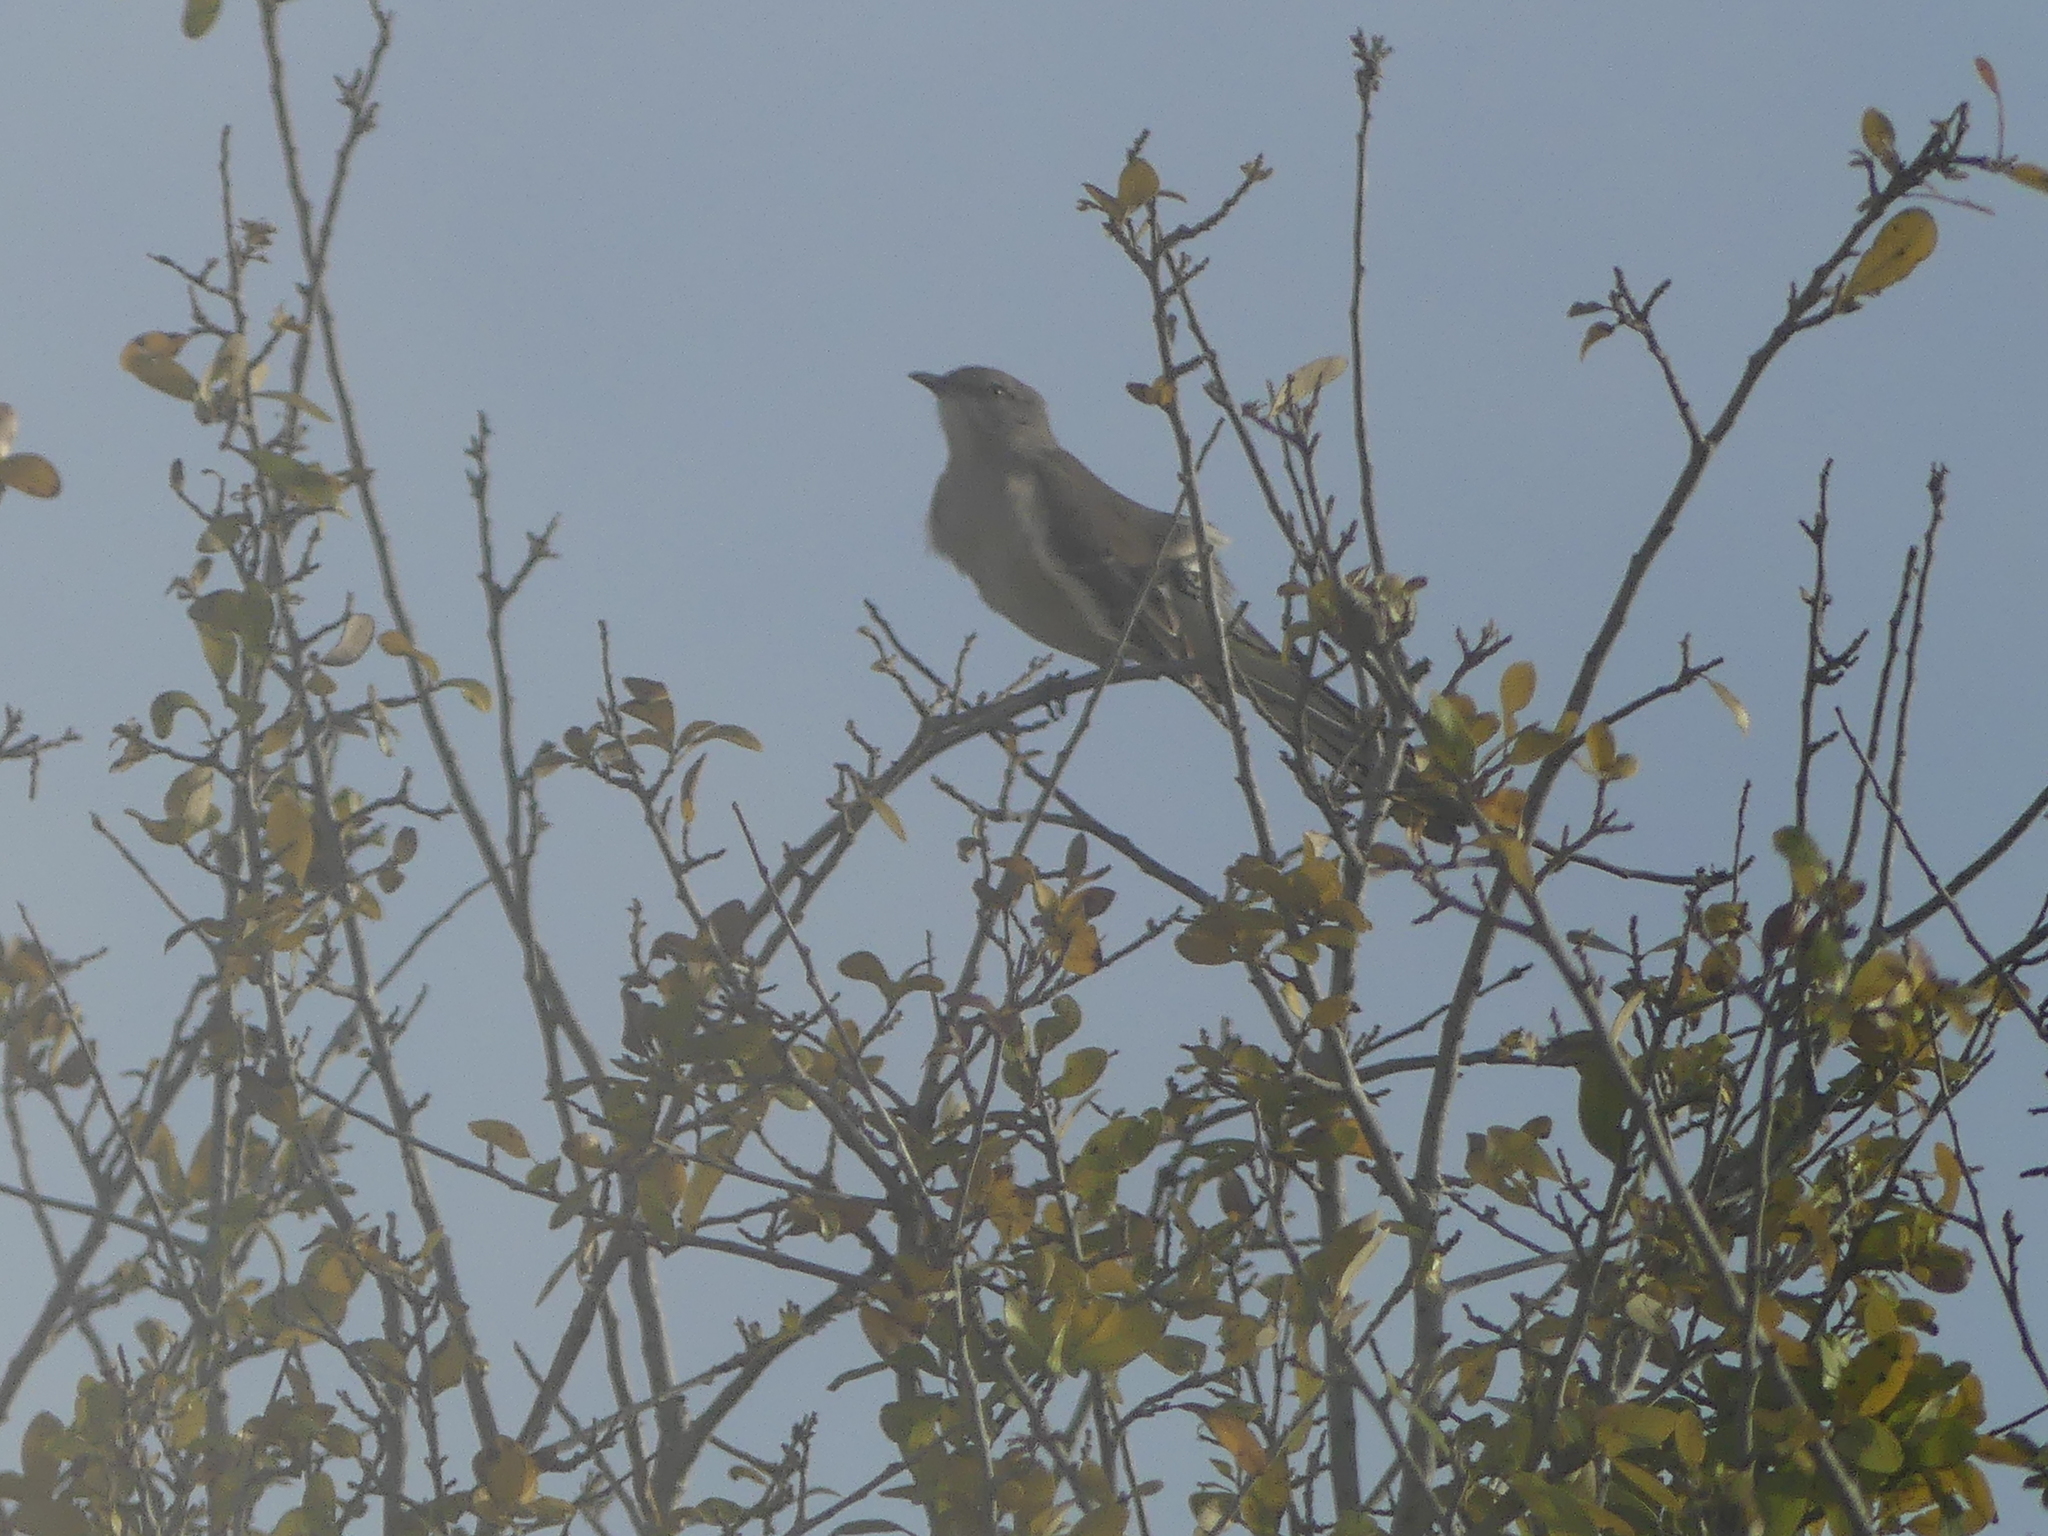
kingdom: Animalia
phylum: Chordata
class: Aves
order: Passeriformes
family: Mimidae
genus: Mimus
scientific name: Mimus polyglottos
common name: Northern mockingbird
